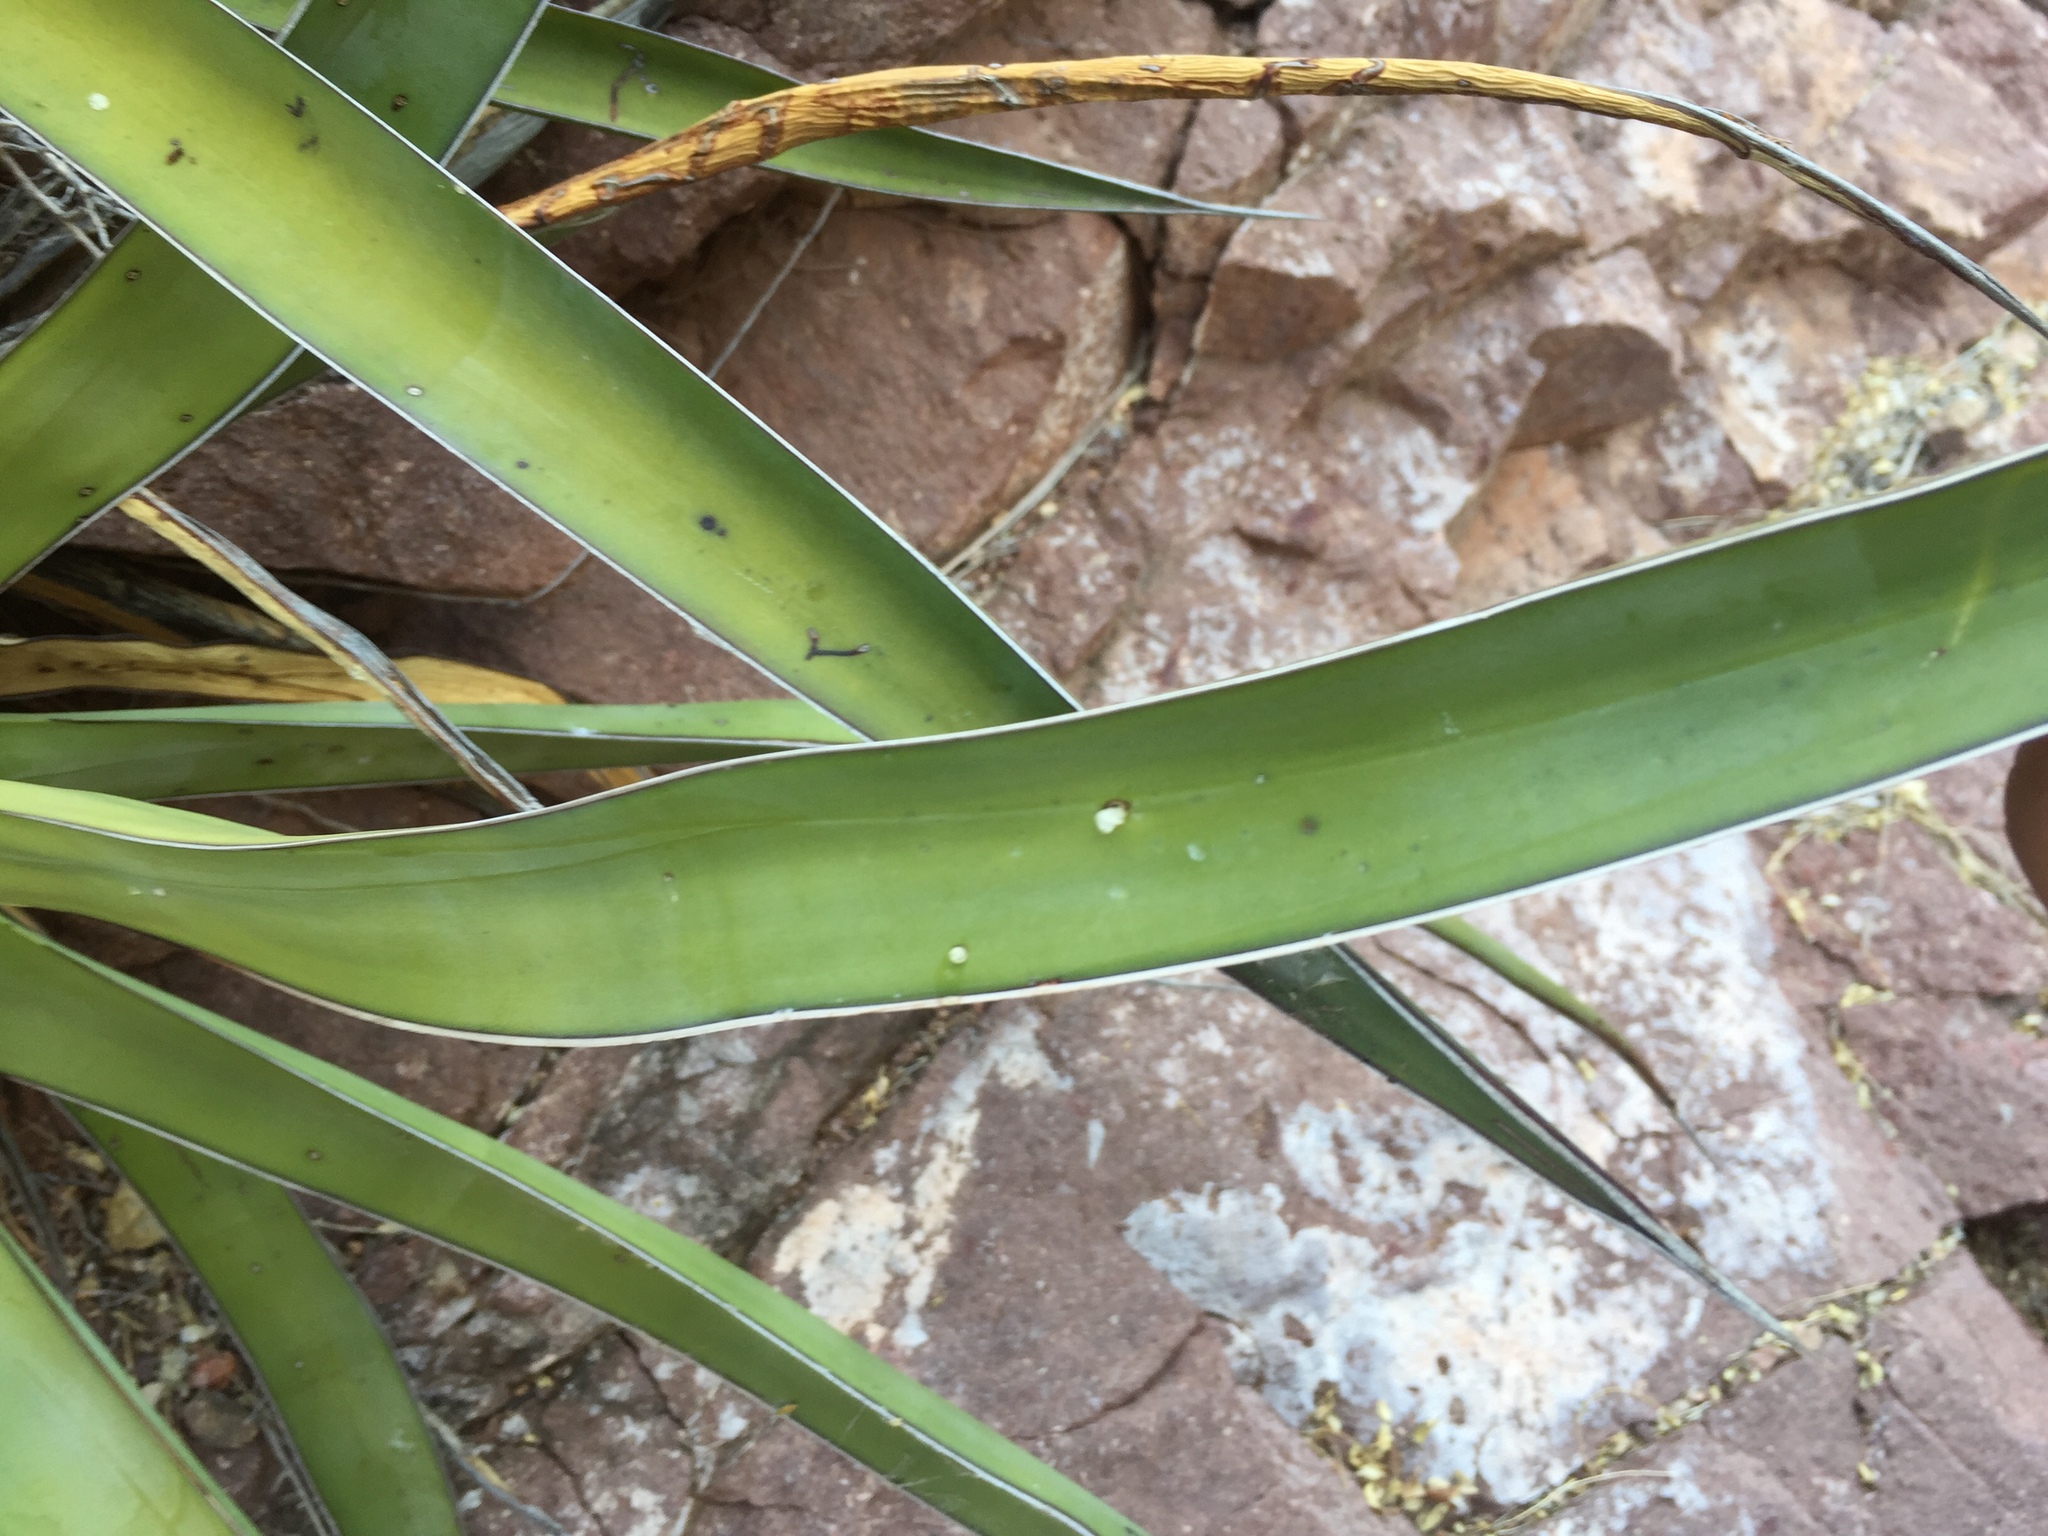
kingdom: Plantae
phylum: Tracheophyta
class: Liliopsida
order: Asparagales
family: Asparagaceae
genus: Agave
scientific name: Agave chrysoglossa
